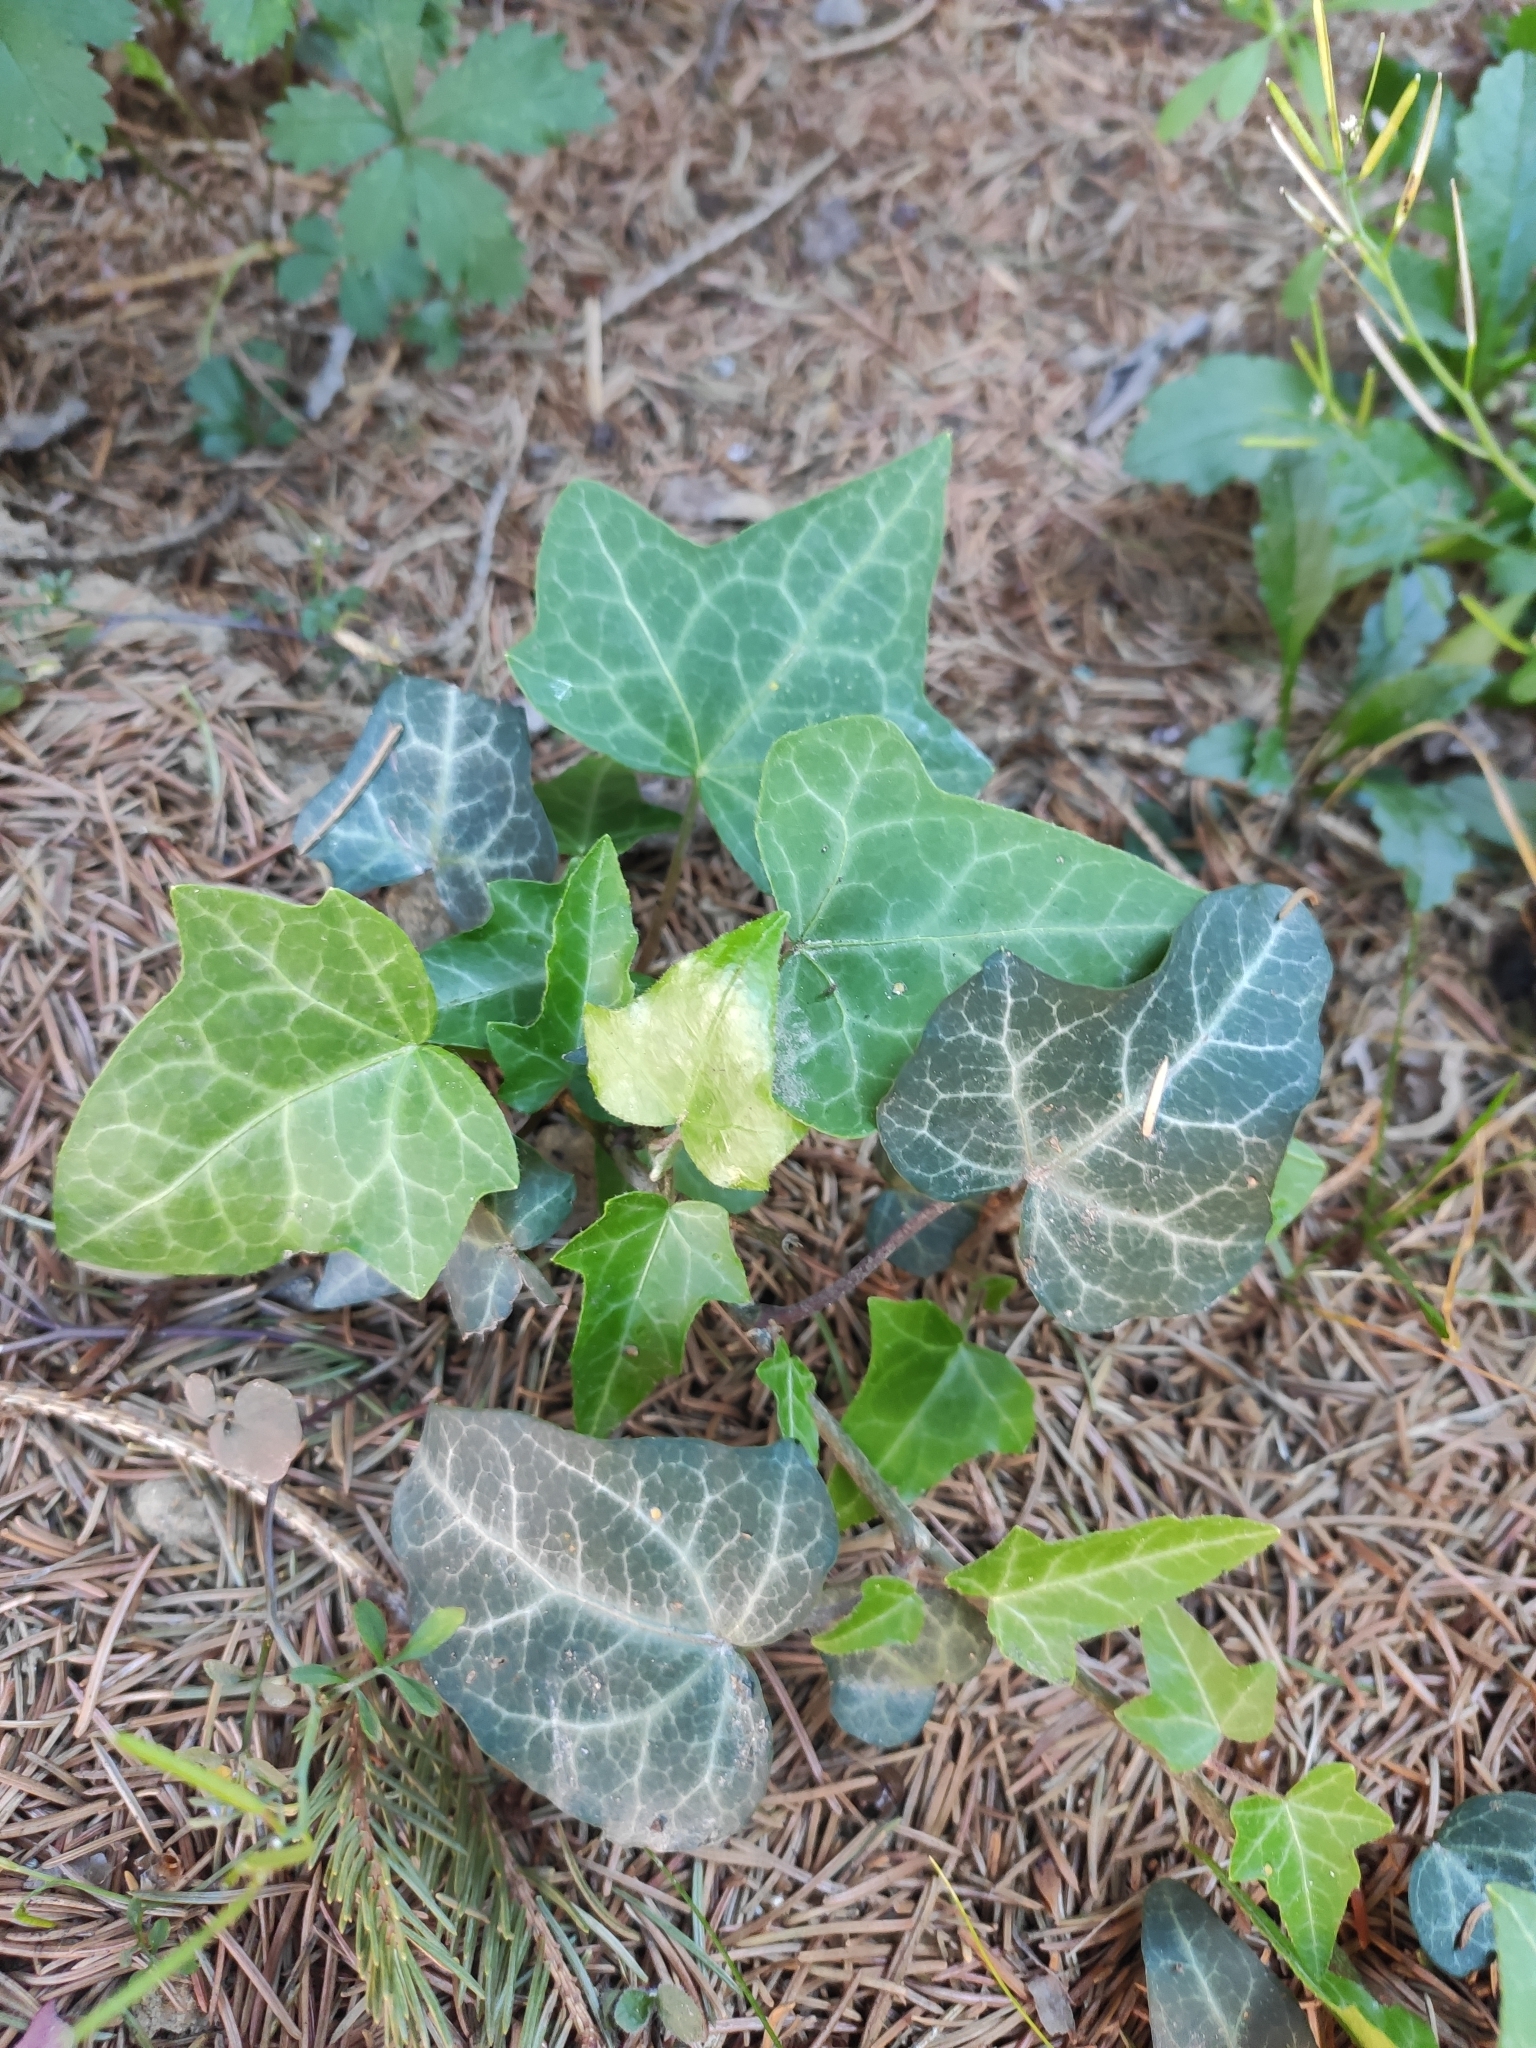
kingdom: Plantae
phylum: Tracheophyta
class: Magnoliopsida
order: Apiales
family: Araliaceae
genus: Hedera
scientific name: Hedera helix
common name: Ivy
